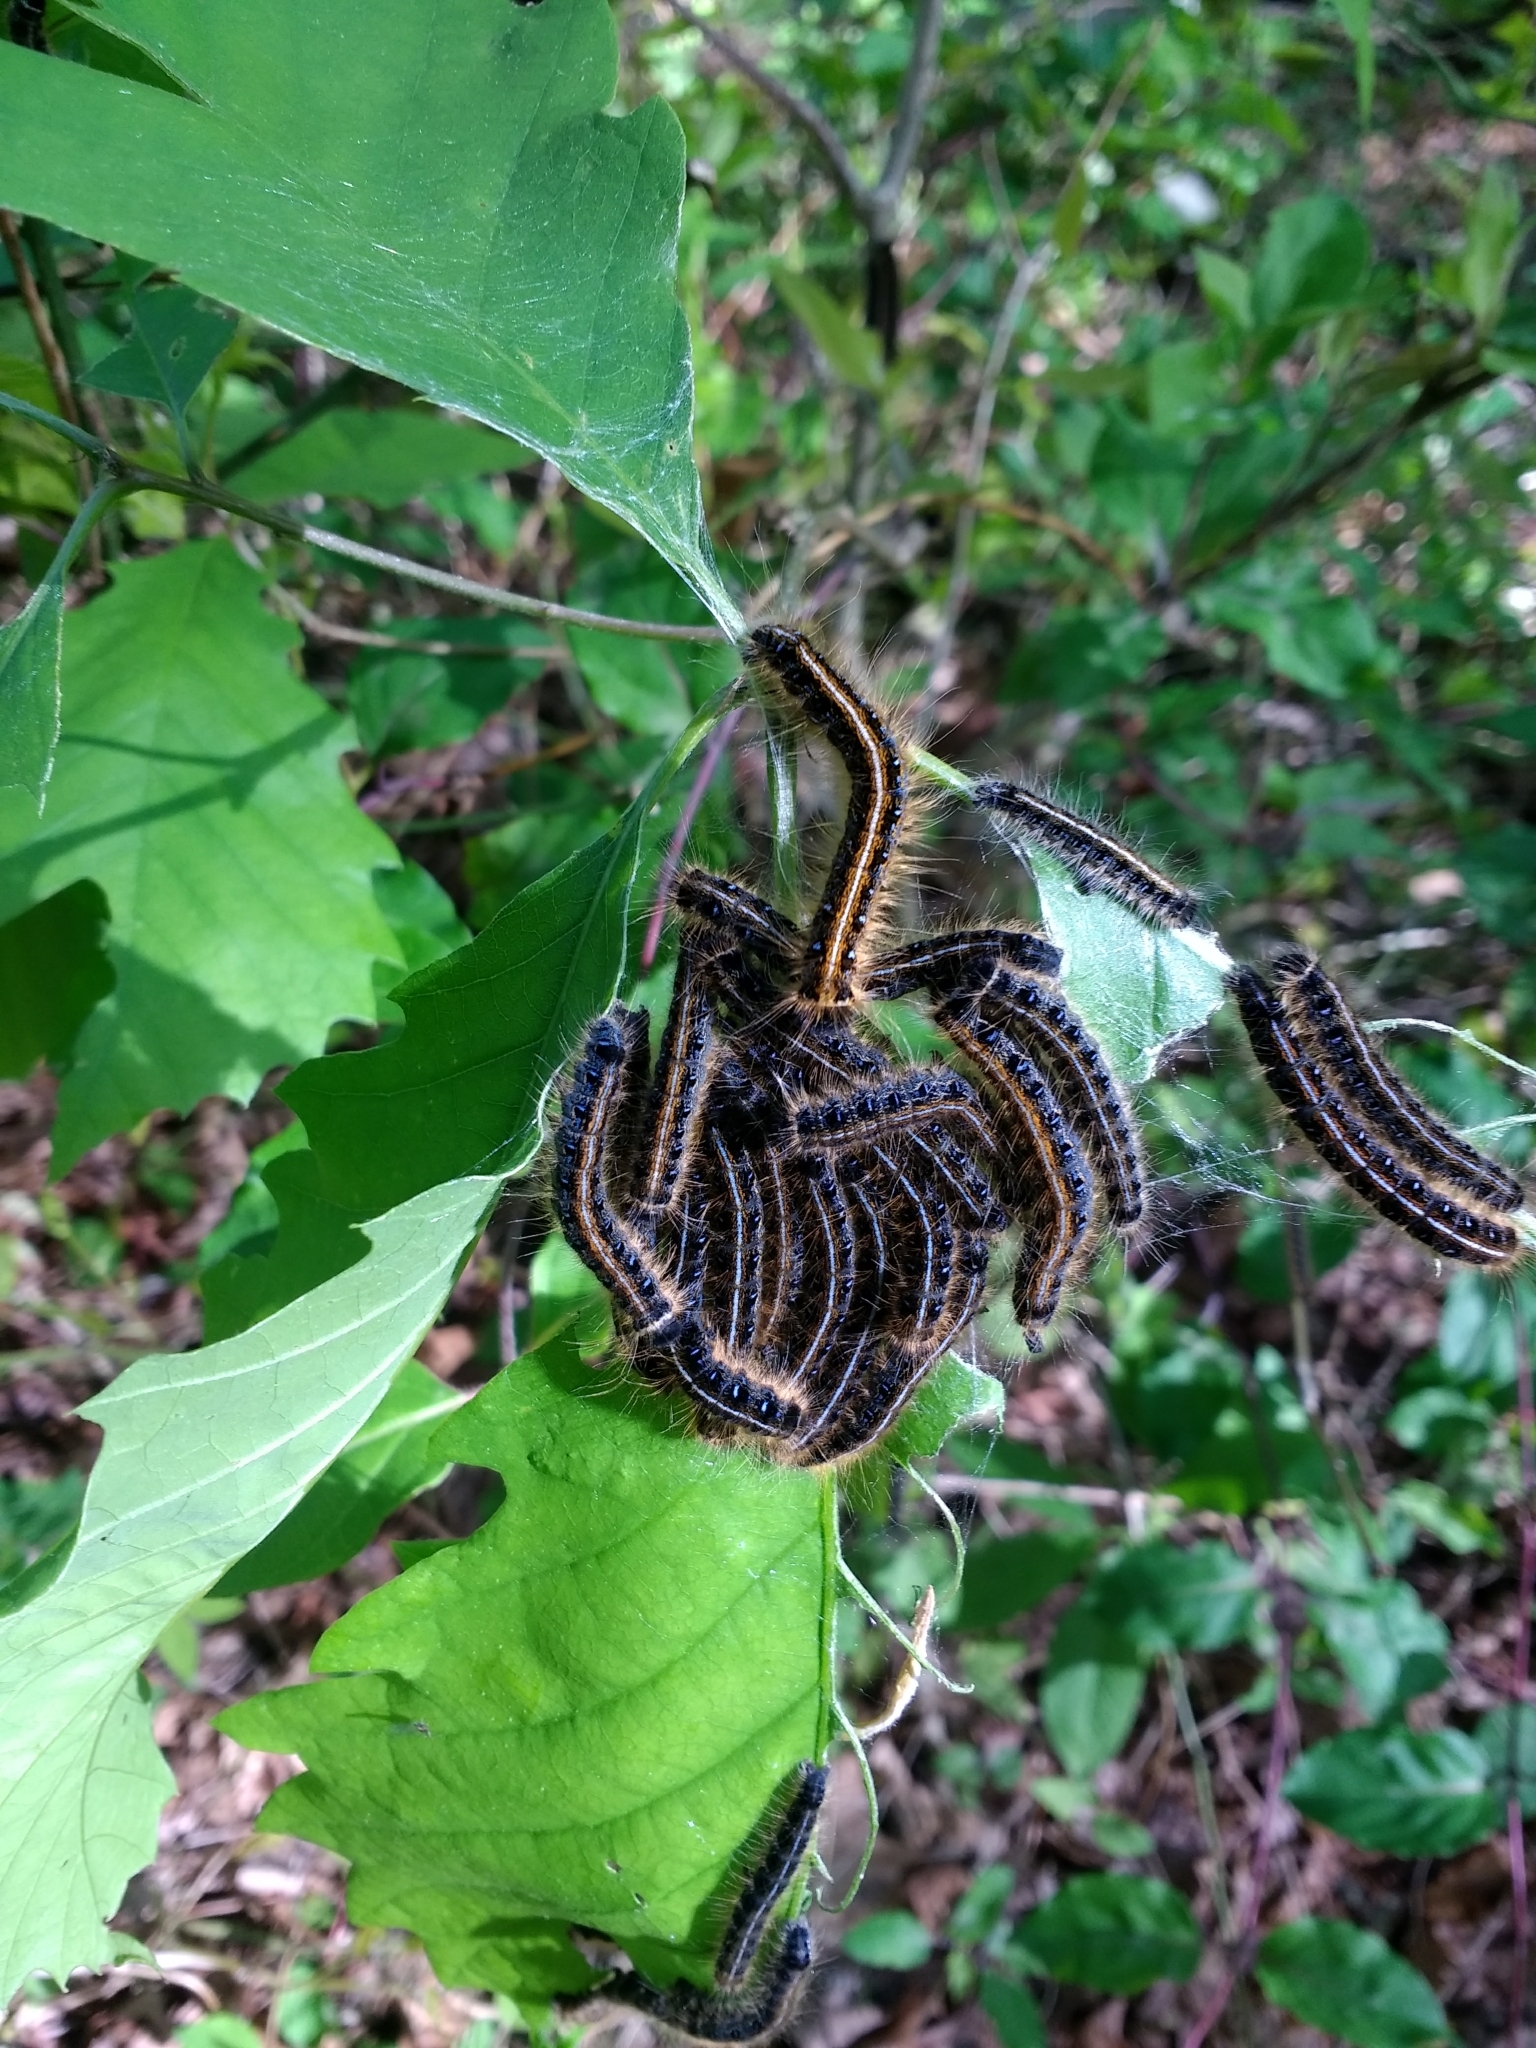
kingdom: Animalia
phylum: Arthropoda
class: Insecta
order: Lepidoptera
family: Lasiocampidae
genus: Malacosoma
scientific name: Malacosoma americana
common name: Eastern tent caterpillar moth
